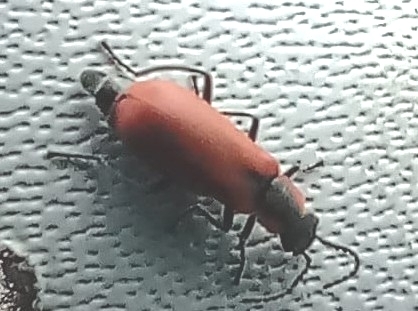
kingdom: Animalia
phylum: Arthropoda
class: Insecta
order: Coleoptera
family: Melyridae
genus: Anthocomus
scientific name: Anthocomus rufus
